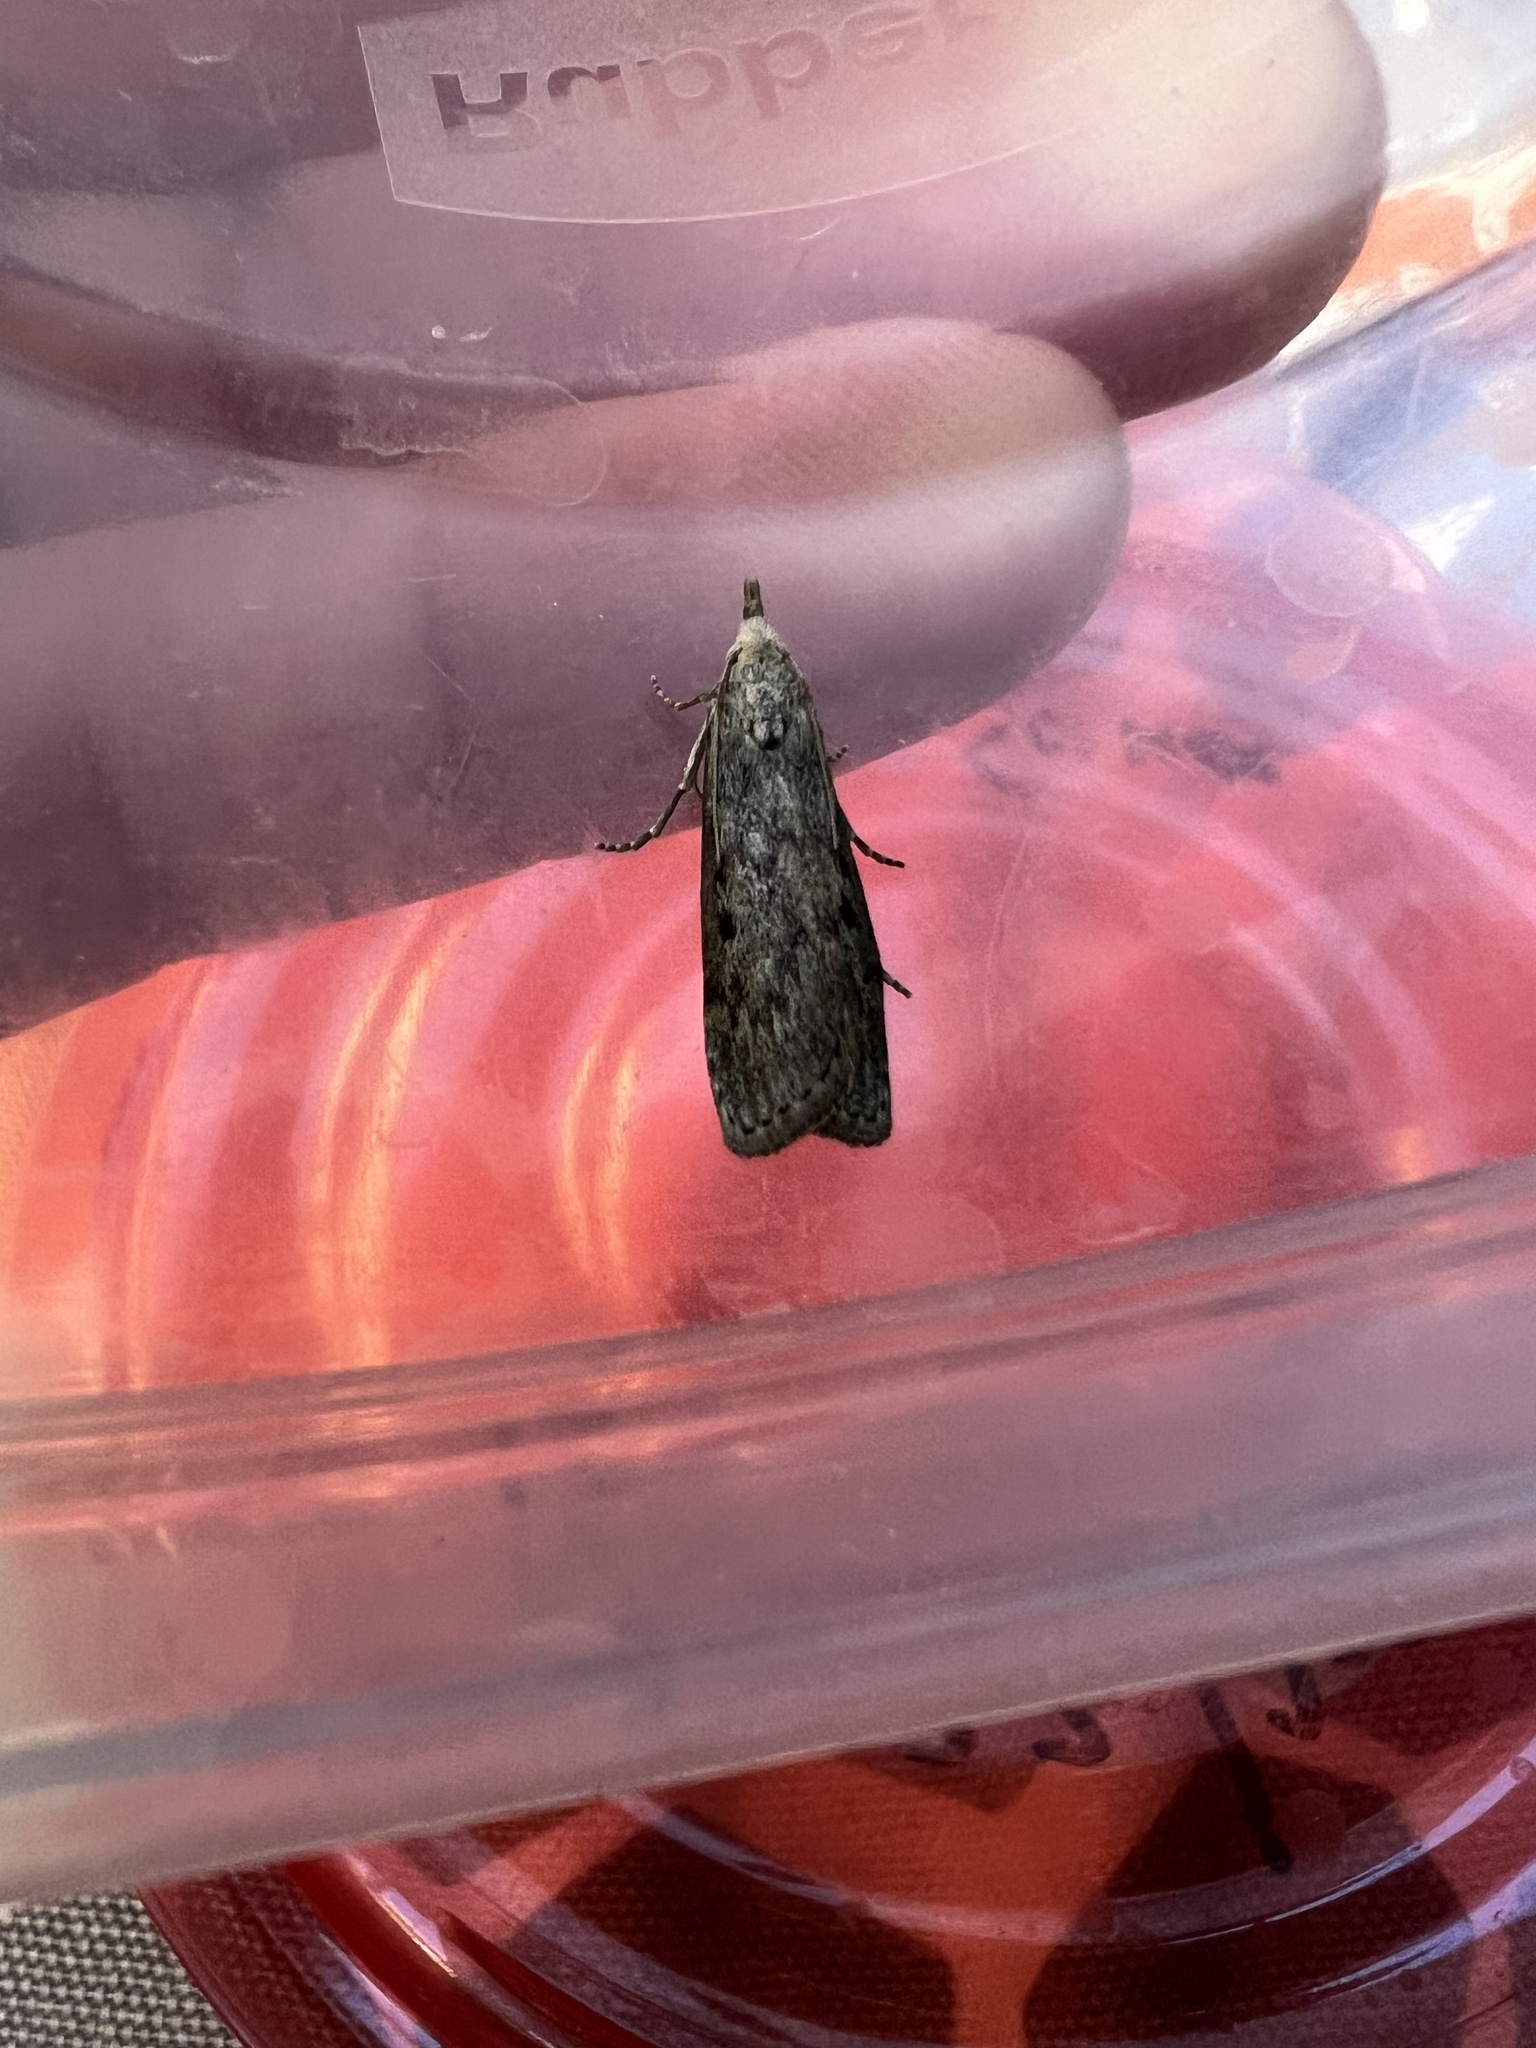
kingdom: Animalia
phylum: Arthropoda
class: Insecta
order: Lepidoptera
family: Pyralidae
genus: Aphomia
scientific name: Aphomia sociella
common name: Bee moth
